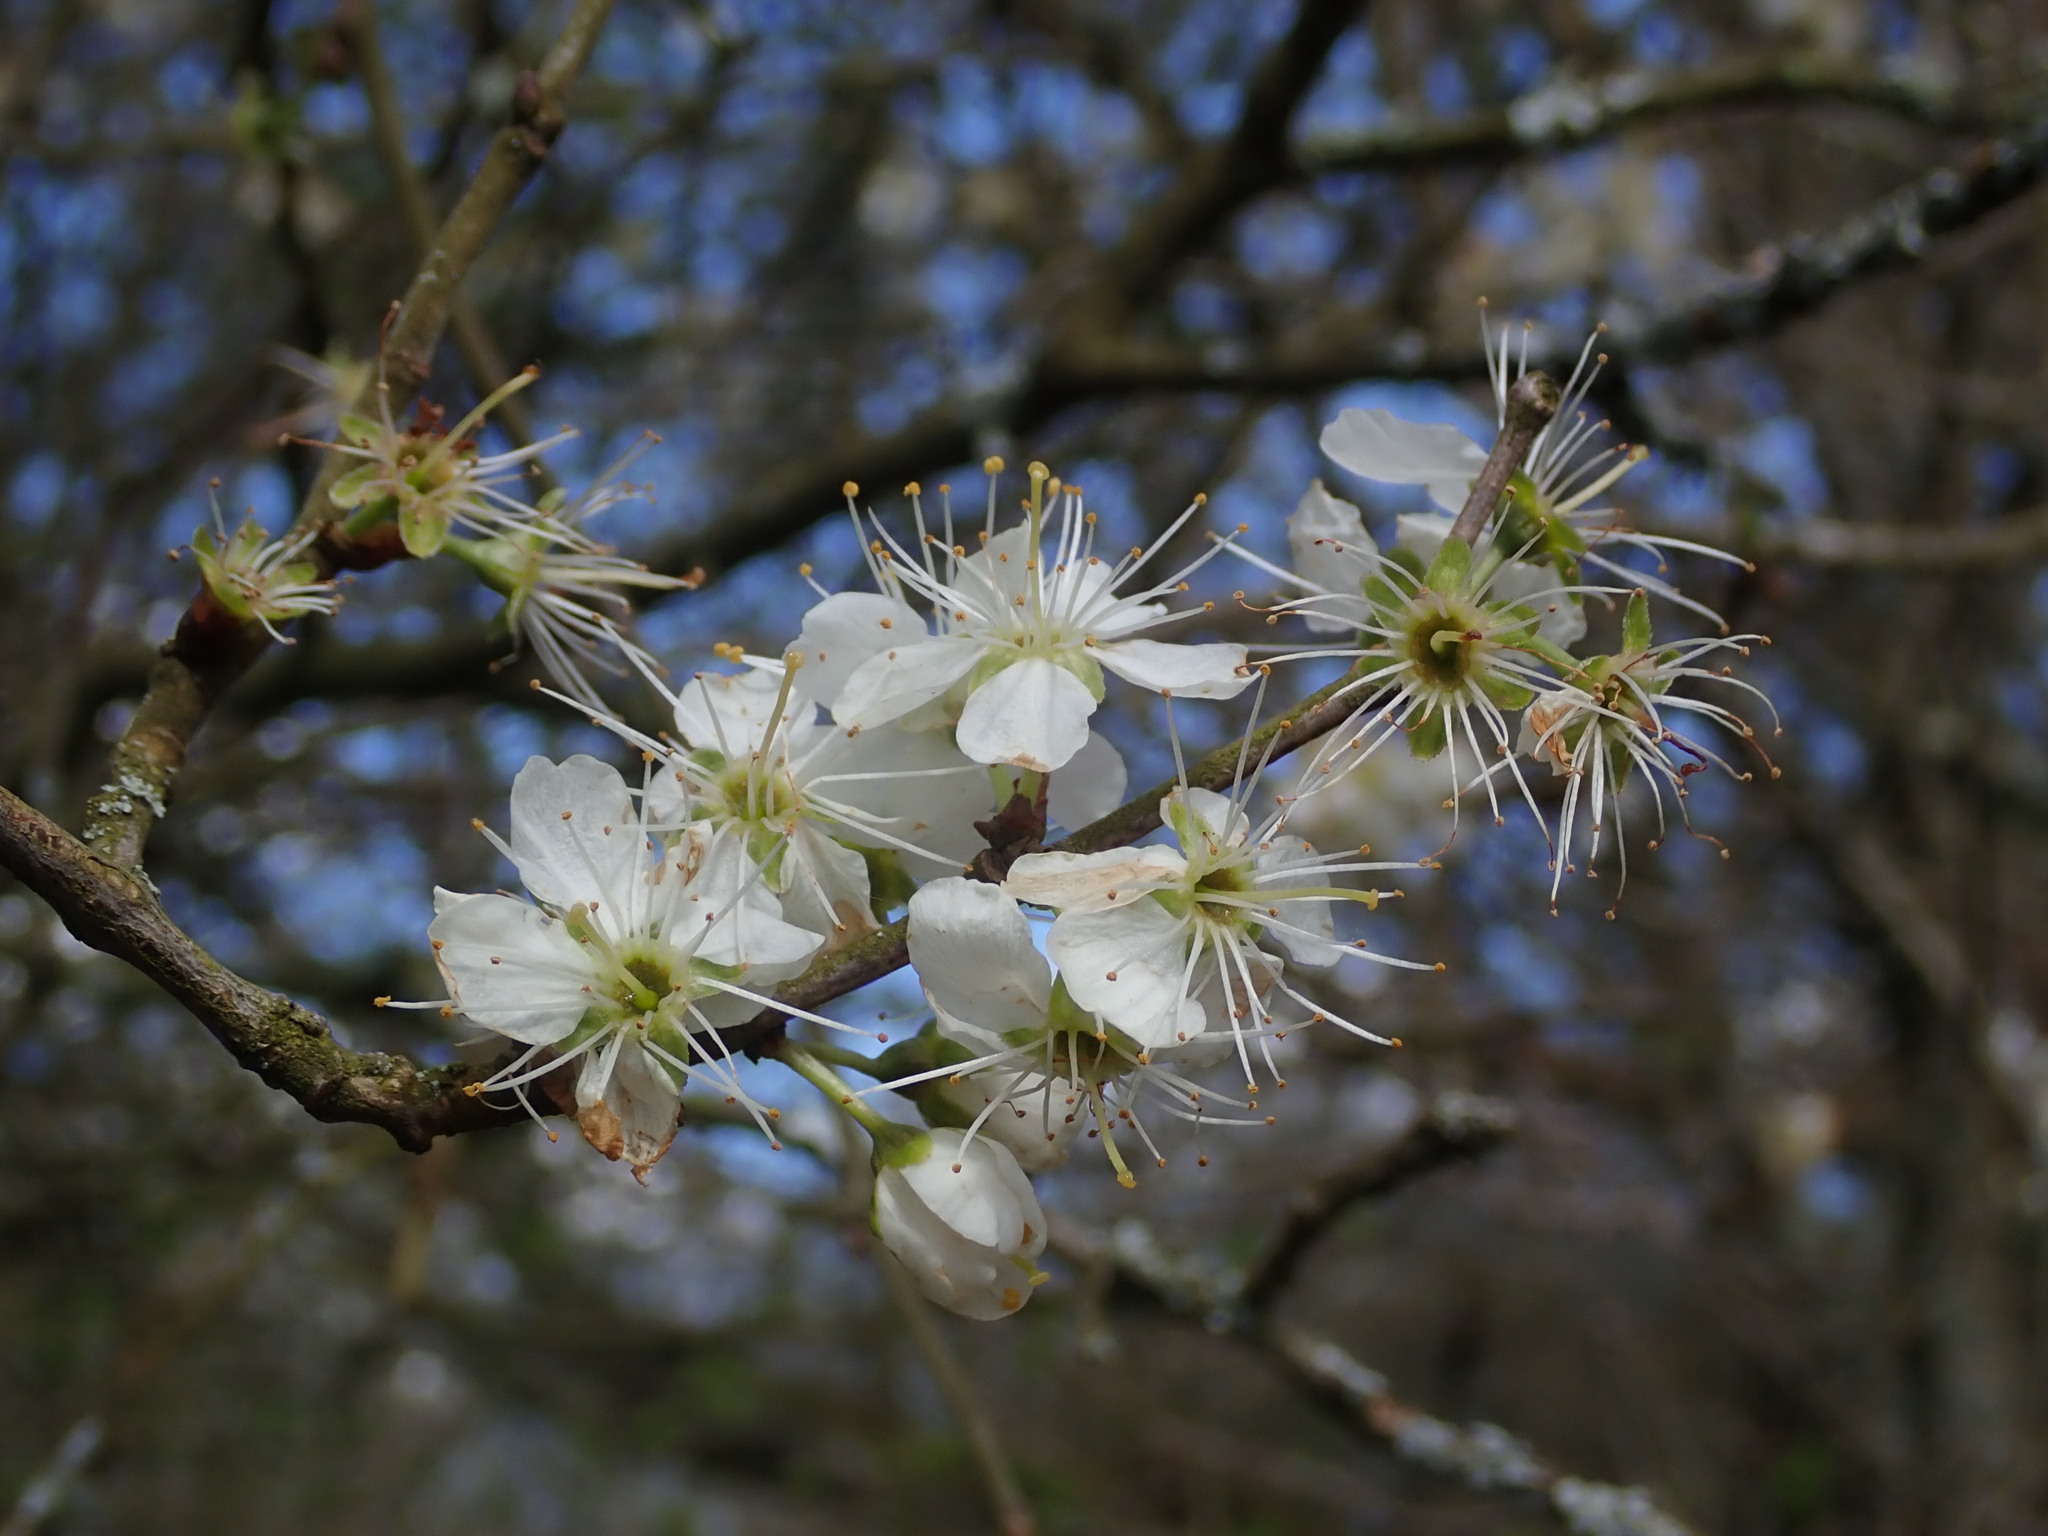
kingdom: Plantae
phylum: Tracheophyta
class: Magnoliopsida
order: Rosales
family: Rosaceae
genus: Prunus
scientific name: Prunus spinosa
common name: Blackthorn
